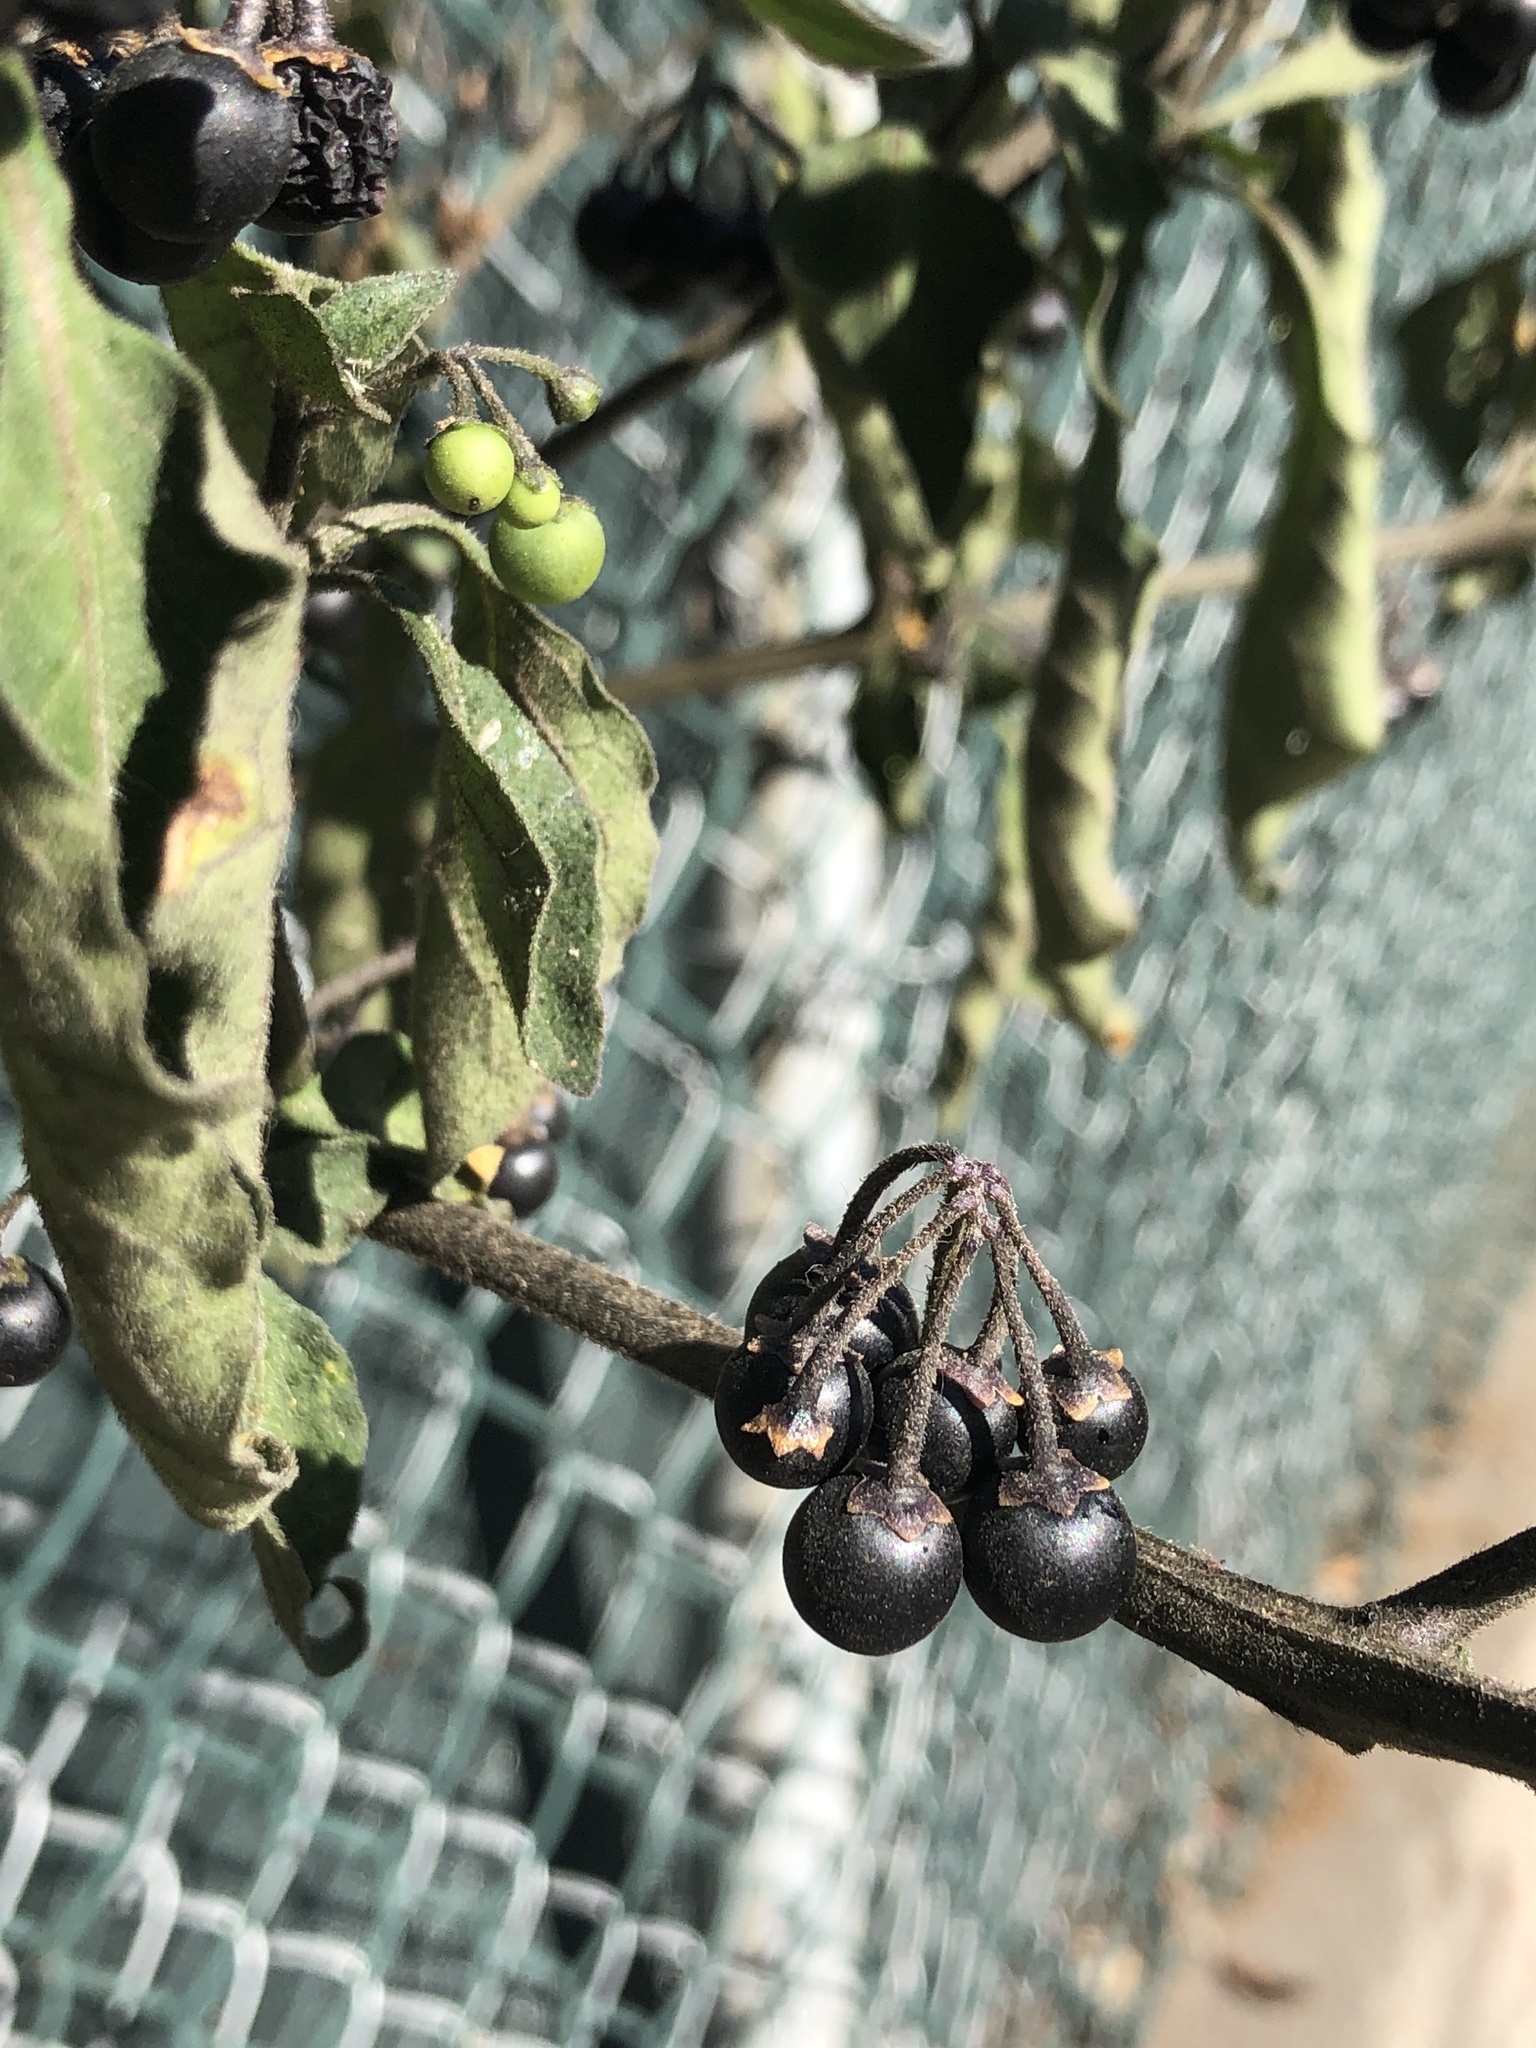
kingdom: Plantae
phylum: Tracheophyta
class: Magnoliopsida
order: Solanales
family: Solanaceae
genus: Solanum
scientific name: Solanum nigrum
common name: Black nightshade
